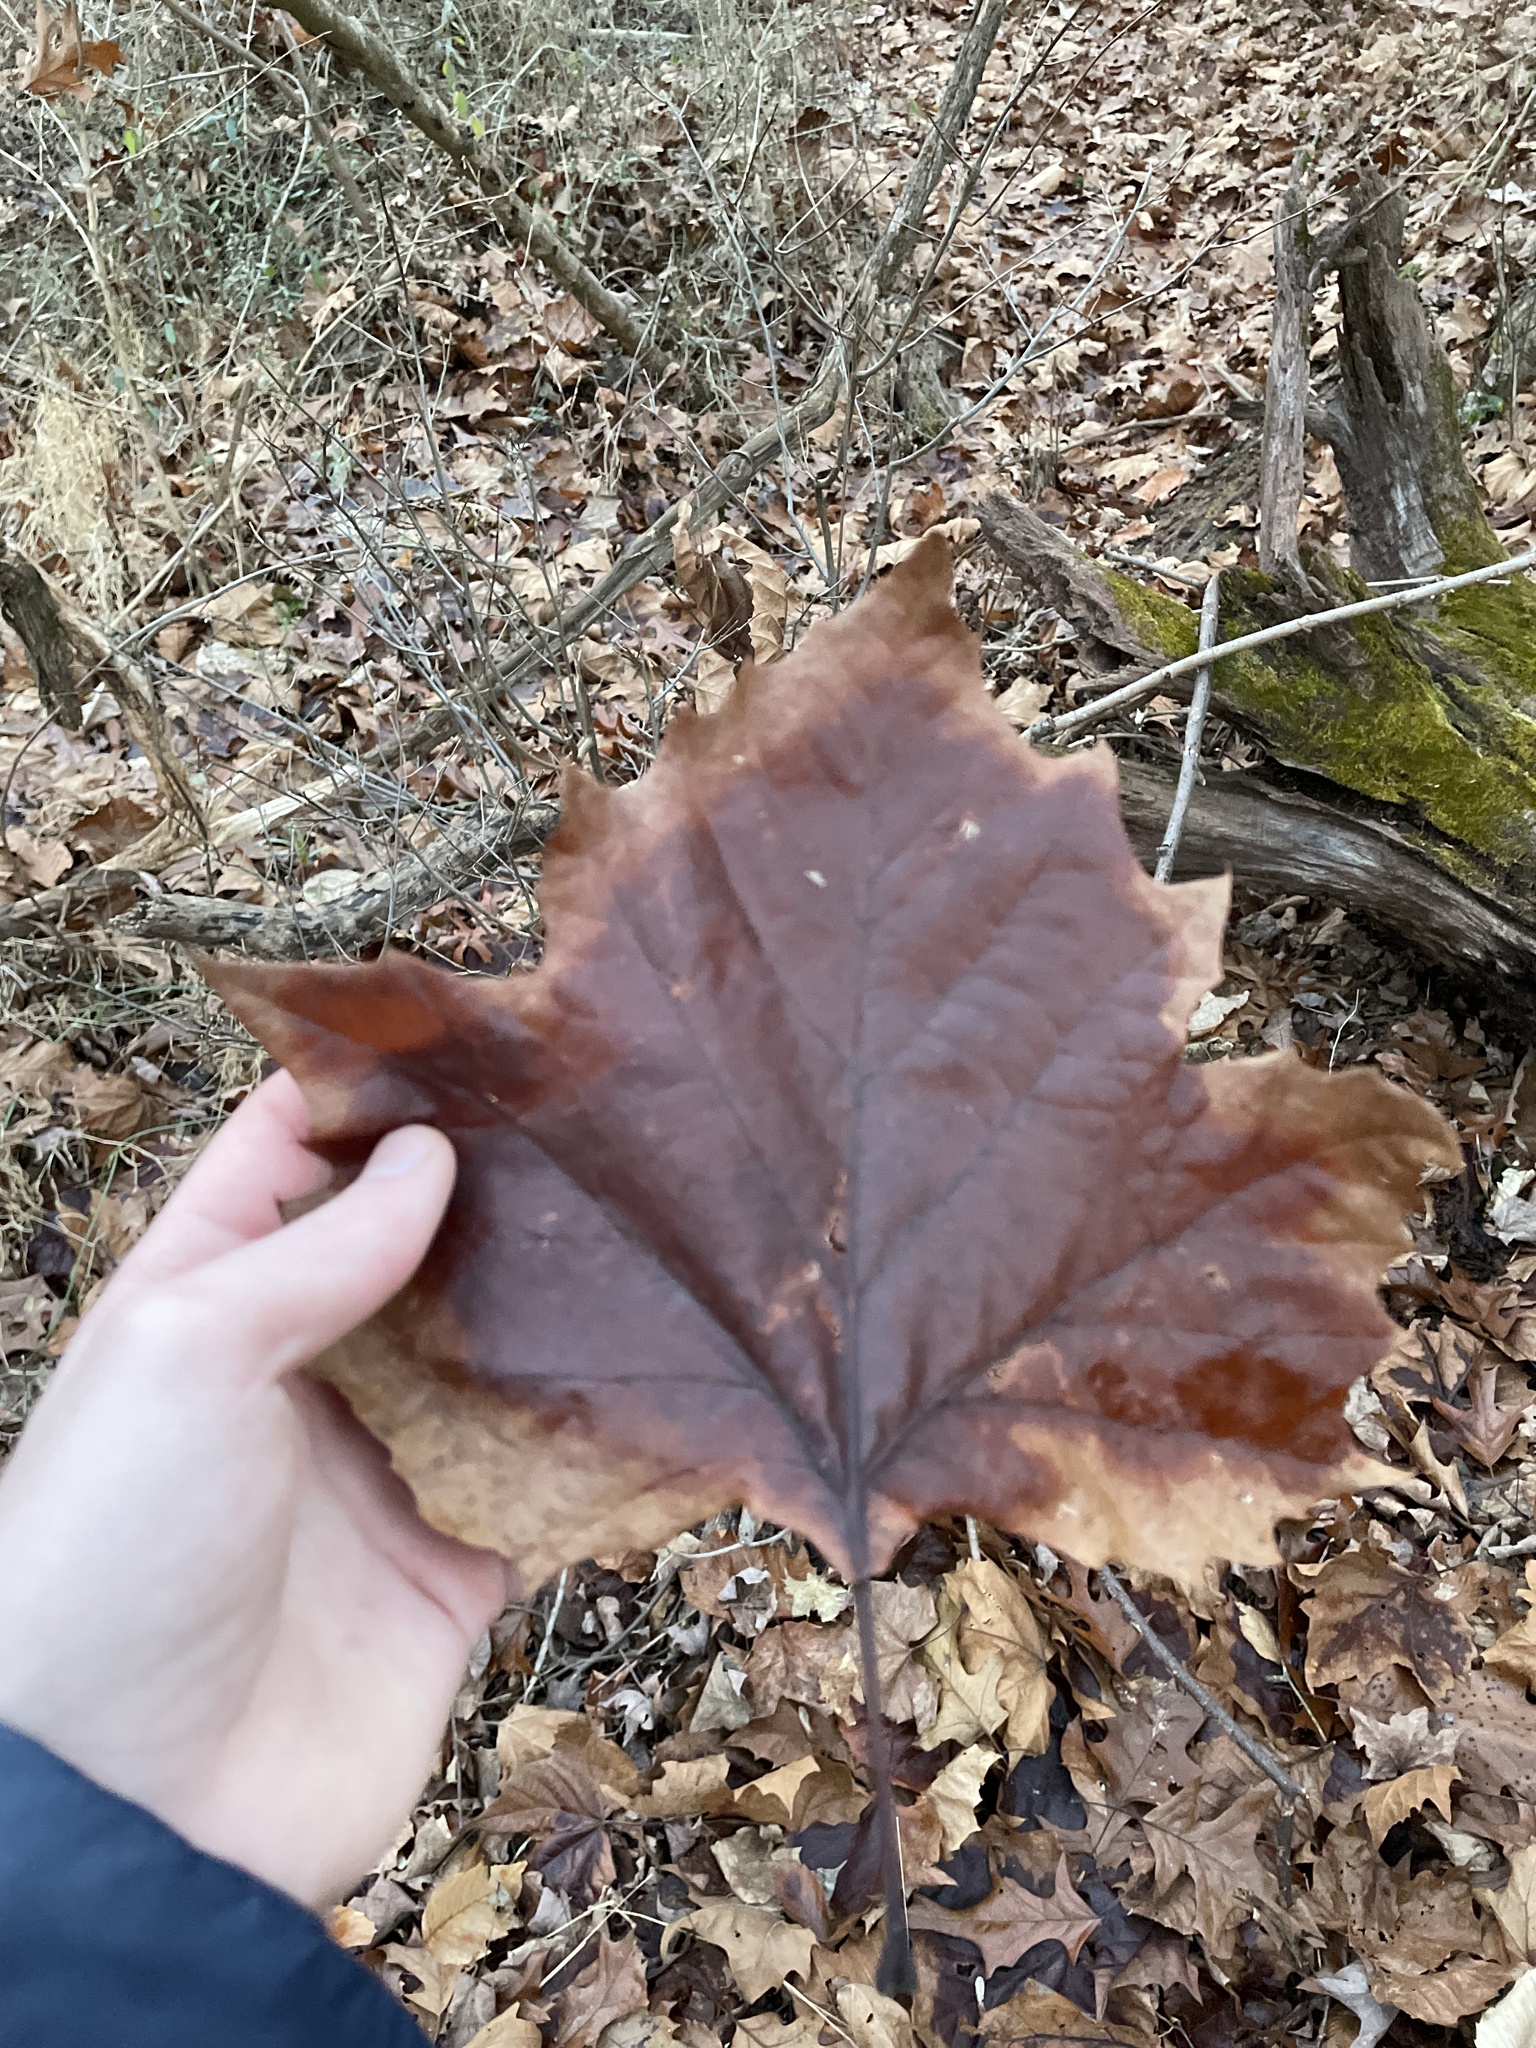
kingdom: Plantae
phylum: Tracheophyta
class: Magnoliopsida
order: Proteales
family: Platanaceae
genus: Platanus
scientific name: Platanus occidentalis
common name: American sycamore
